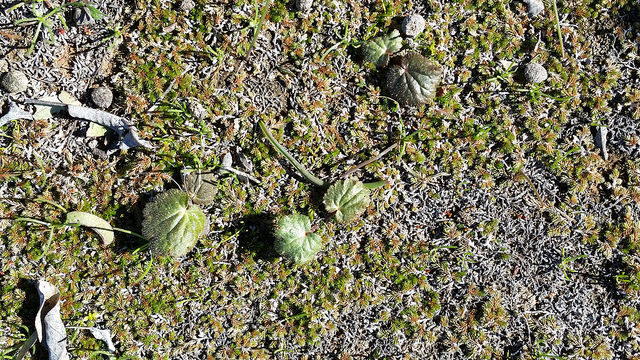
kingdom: Plantae
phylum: Tracheophyta
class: Magnoliopsida
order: Saxifragales
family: Saxifragaceae
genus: Jepsonia
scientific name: Jepsonia parryi
